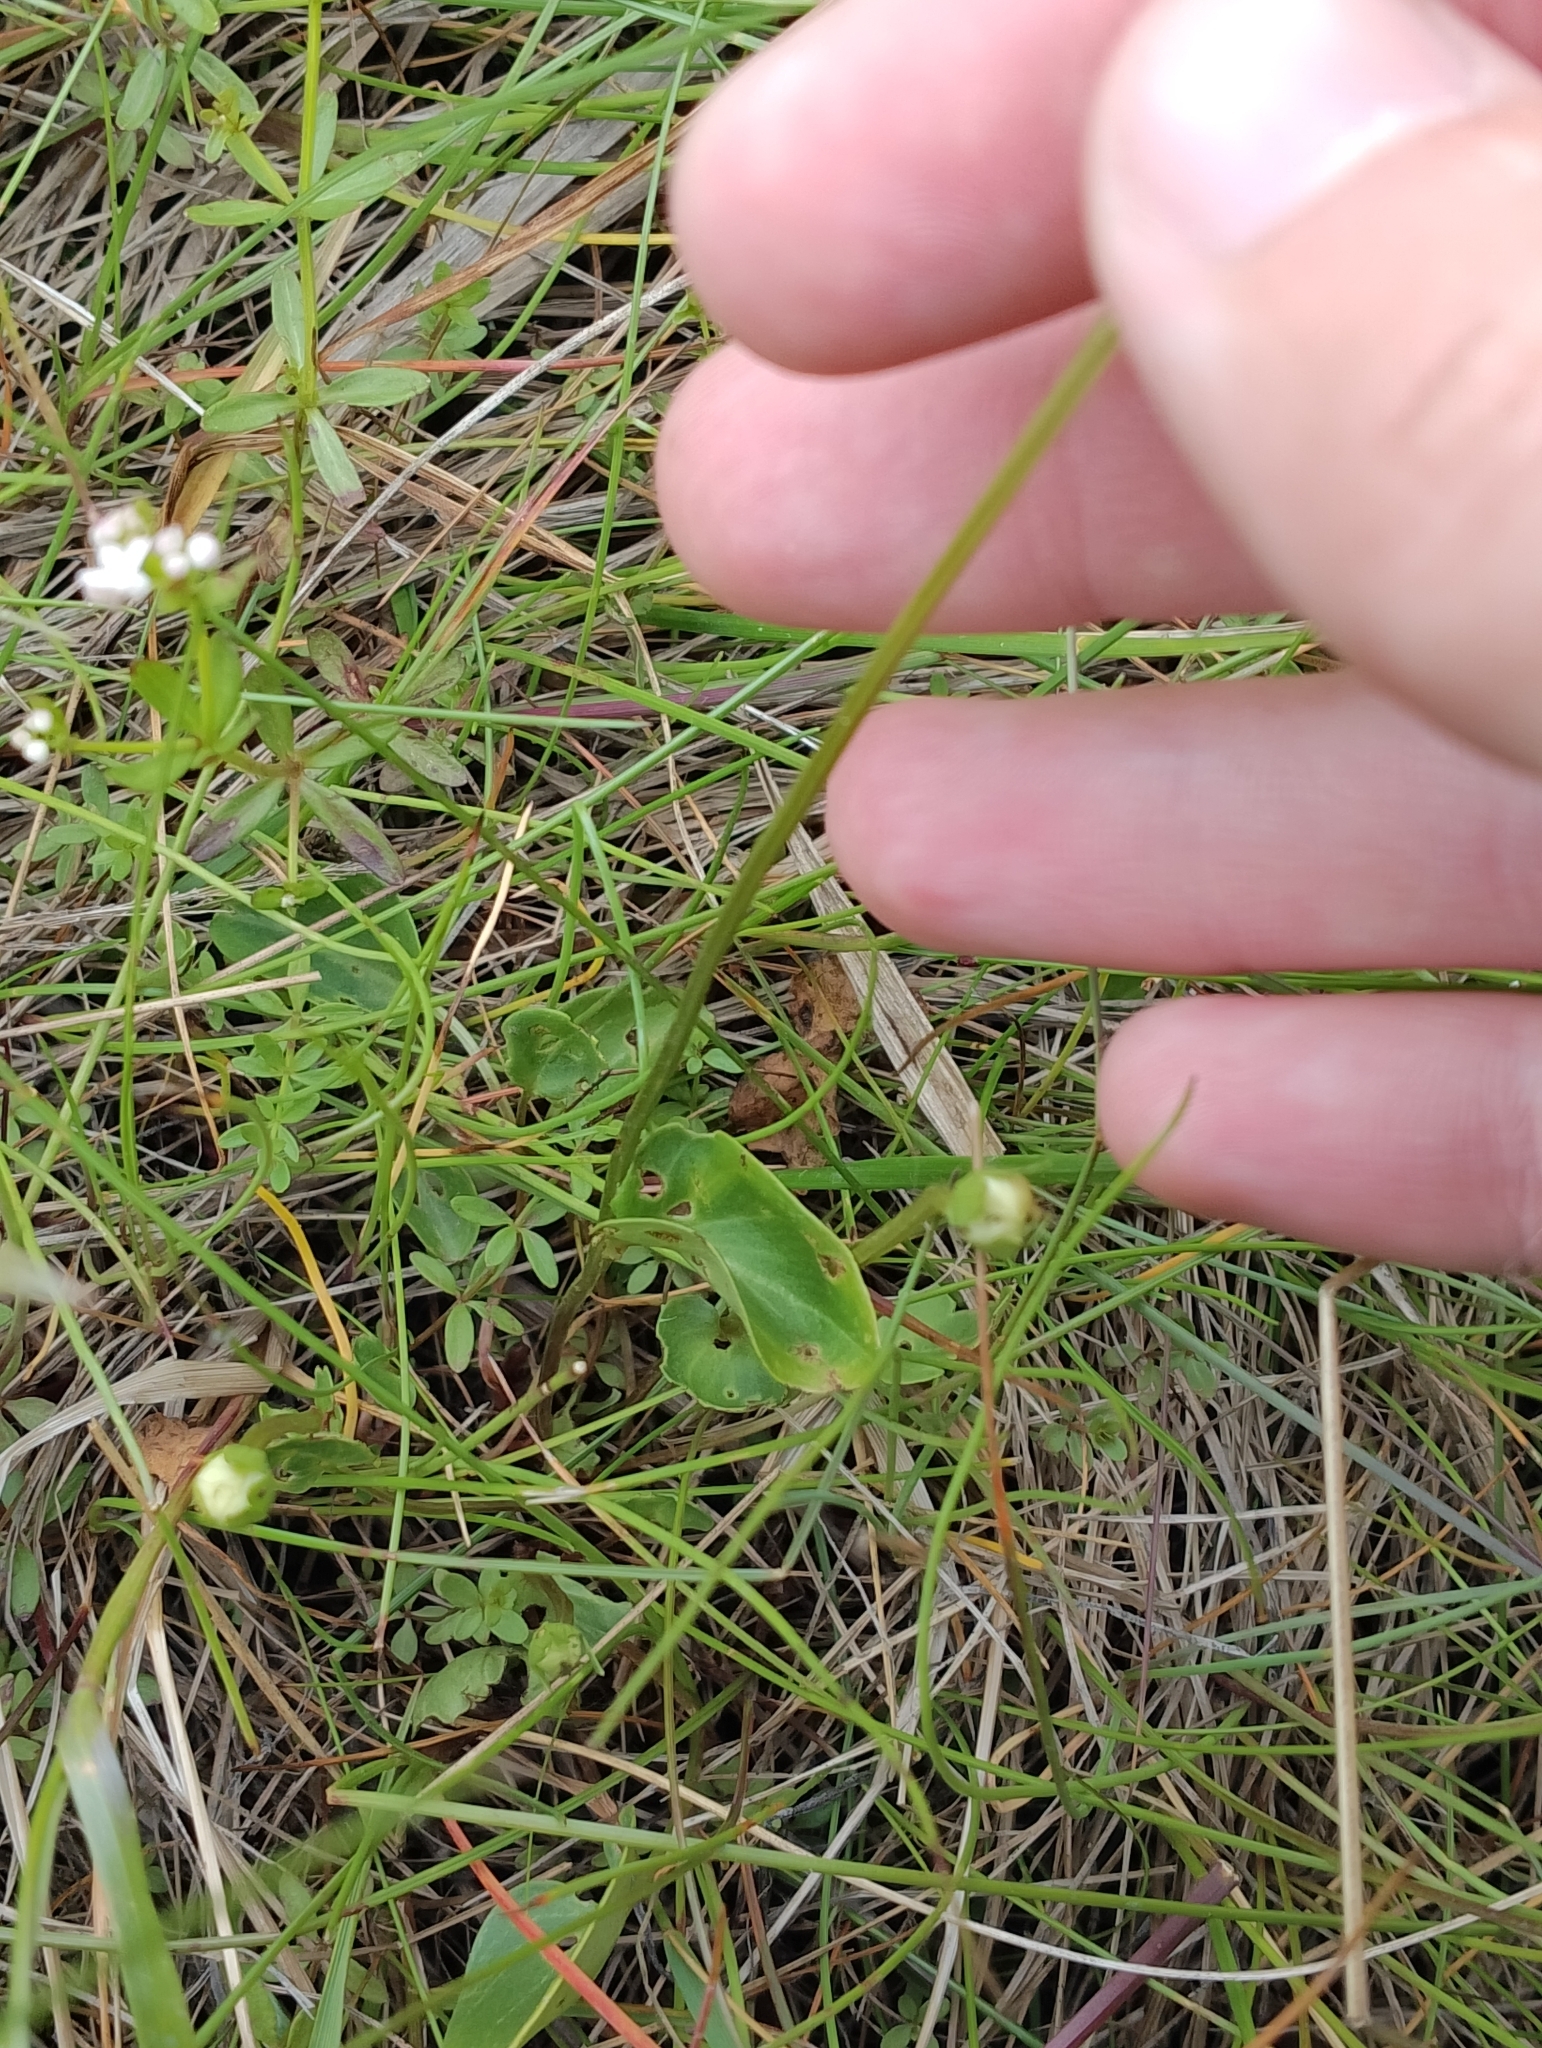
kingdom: Plantae
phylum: Tracheophyta
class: Magnoliopsida
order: Celastrales
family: Parnassiaceae
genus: Parnassia
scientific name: Parnassia palustris
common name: Grass-of-parnassus
